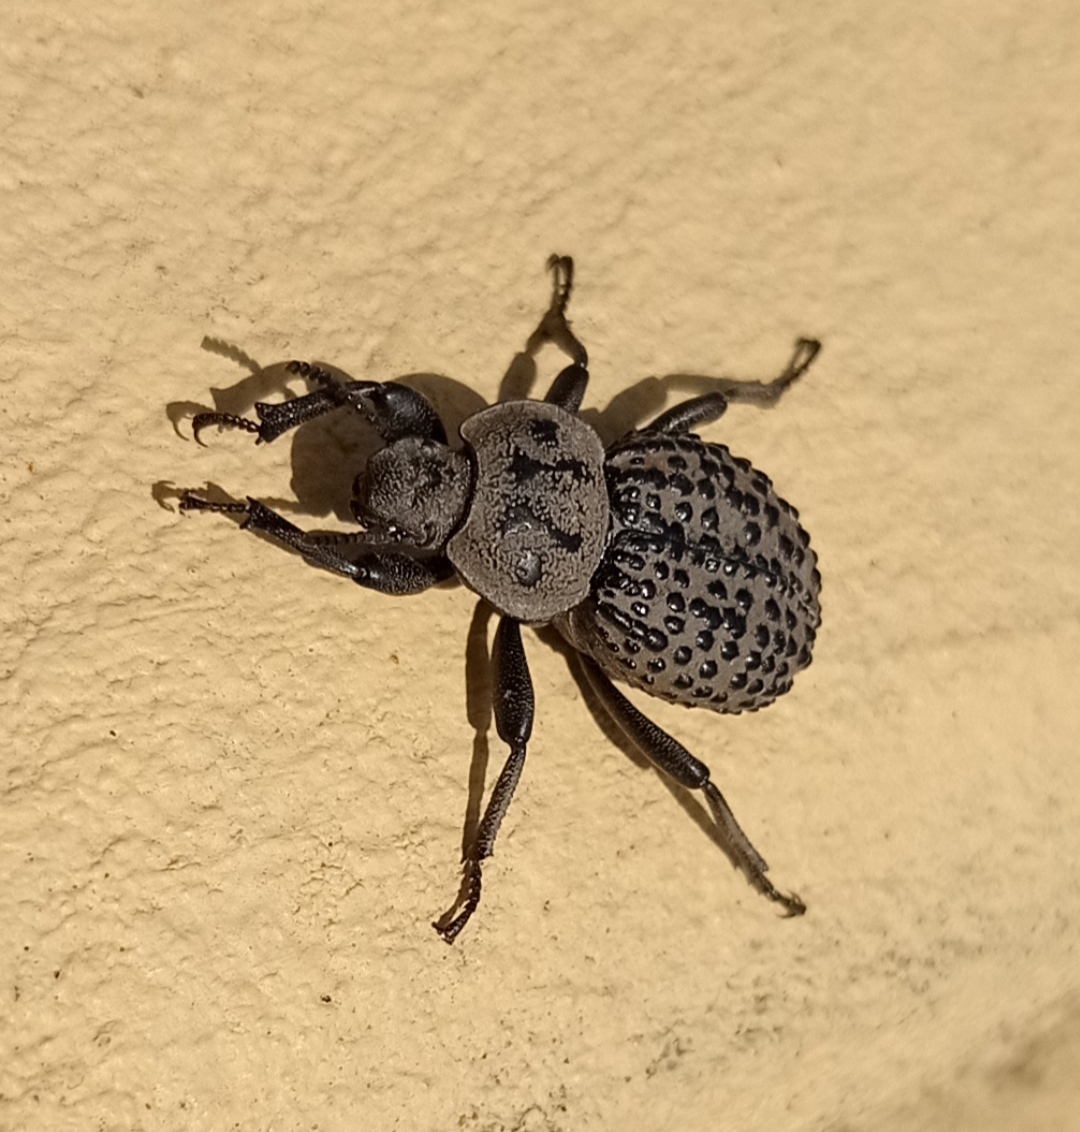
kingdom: Animalia
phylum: Arthropoda
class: Insecta
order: Coleoptera
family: Tenebrionidae
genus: Scotobius
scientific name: Scotobius pilularius
